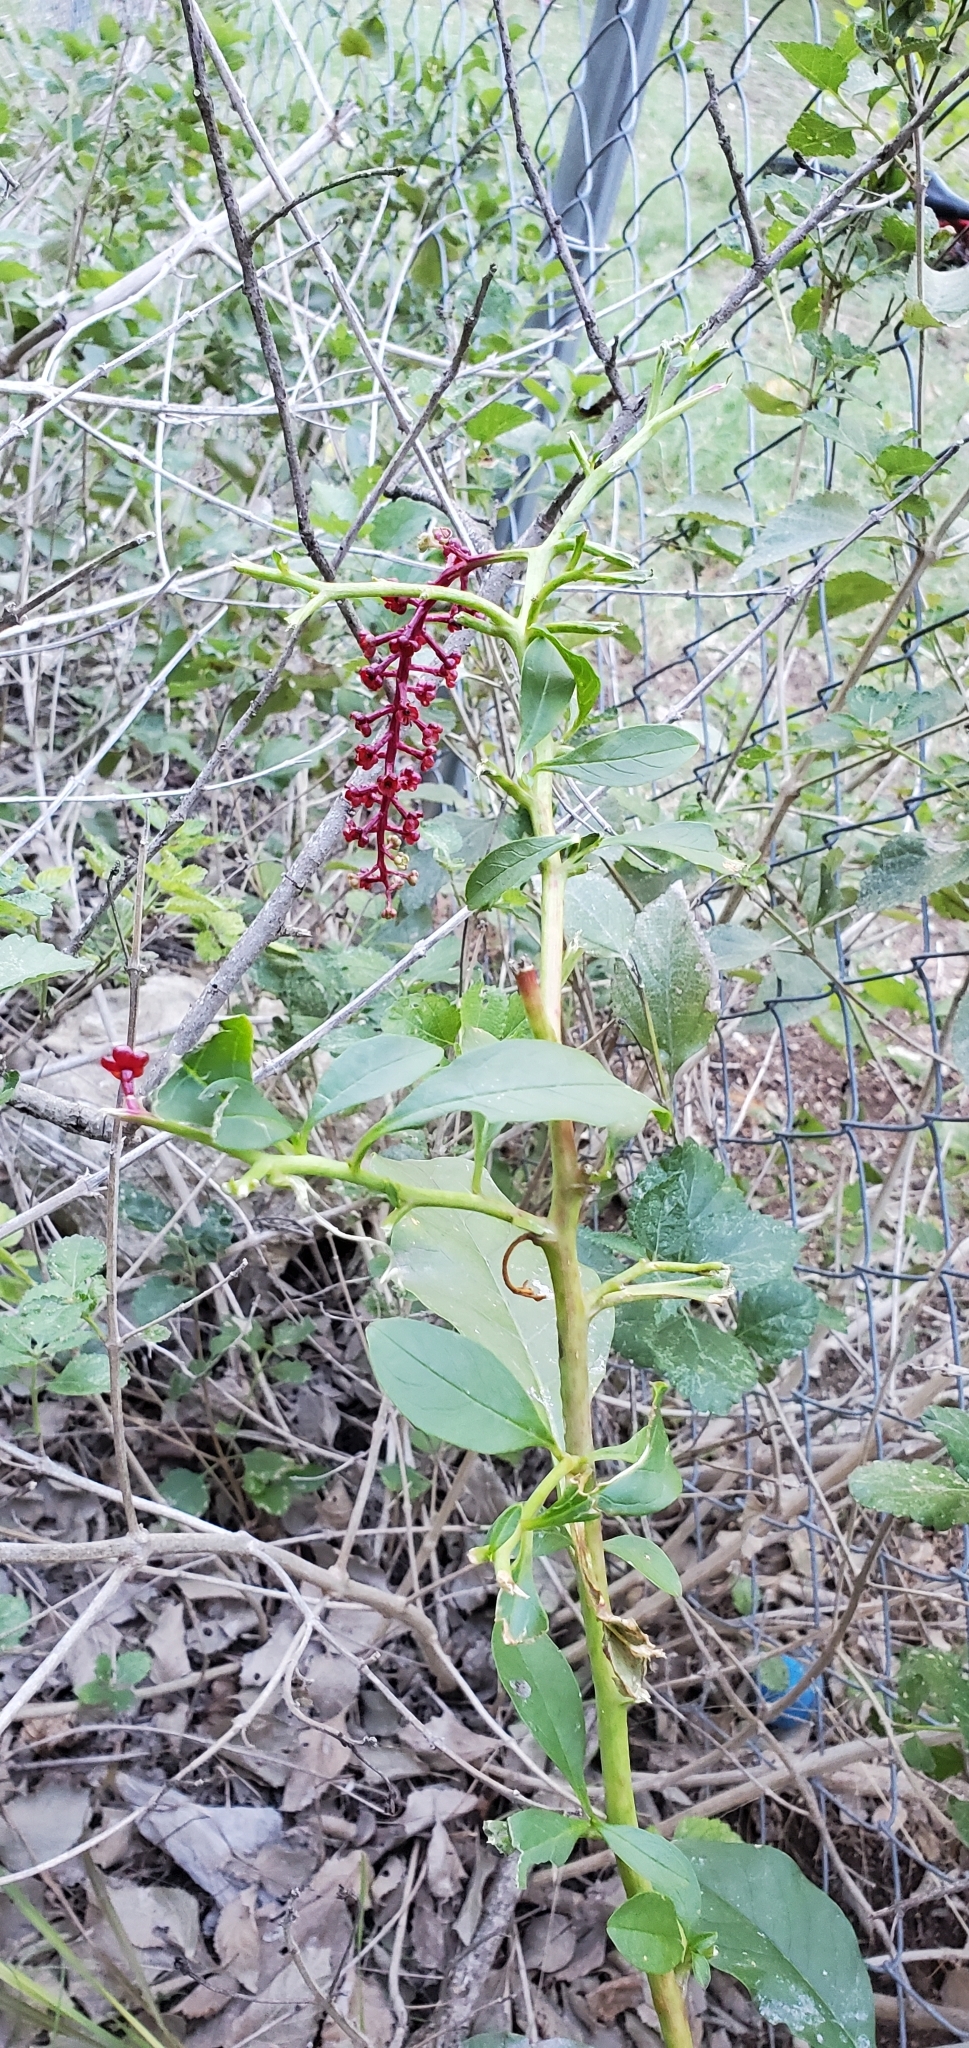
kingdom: Plantae
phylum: Tracheophyta
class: Magnoliopsida
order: Caryophyllales
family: Phytolaccaceae
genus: Phytolacca
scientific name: Phytolacca americana
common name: American pokeweed
